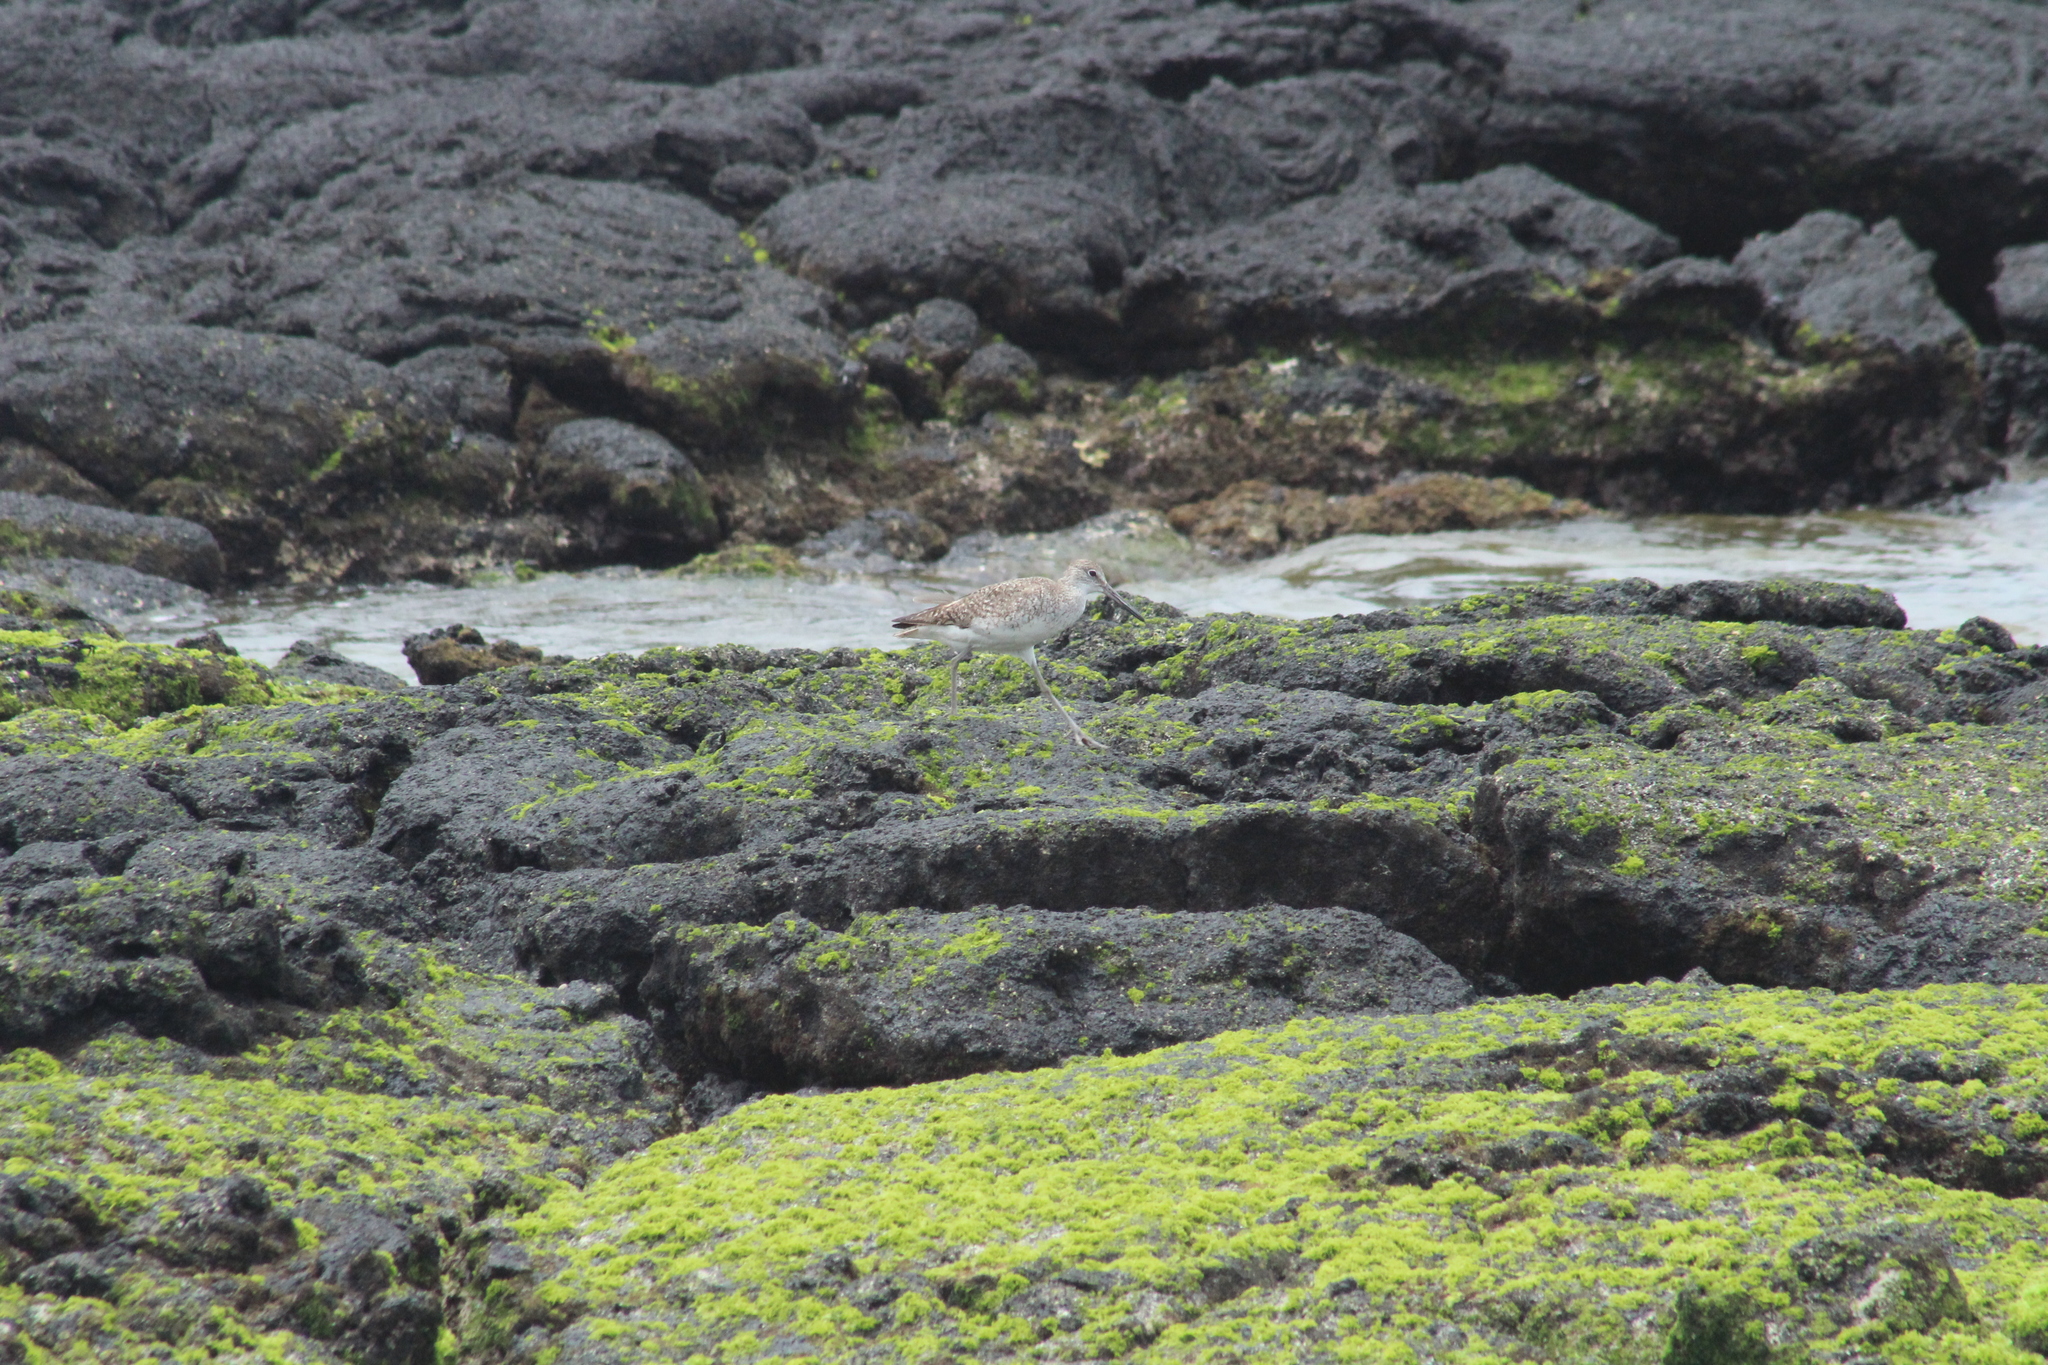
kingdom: Animalia
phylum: Chordata
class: Aves
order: Charadriiformes
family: Scolopacidae
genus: Tringa
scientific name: Tringa semipalmata
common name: Willet
